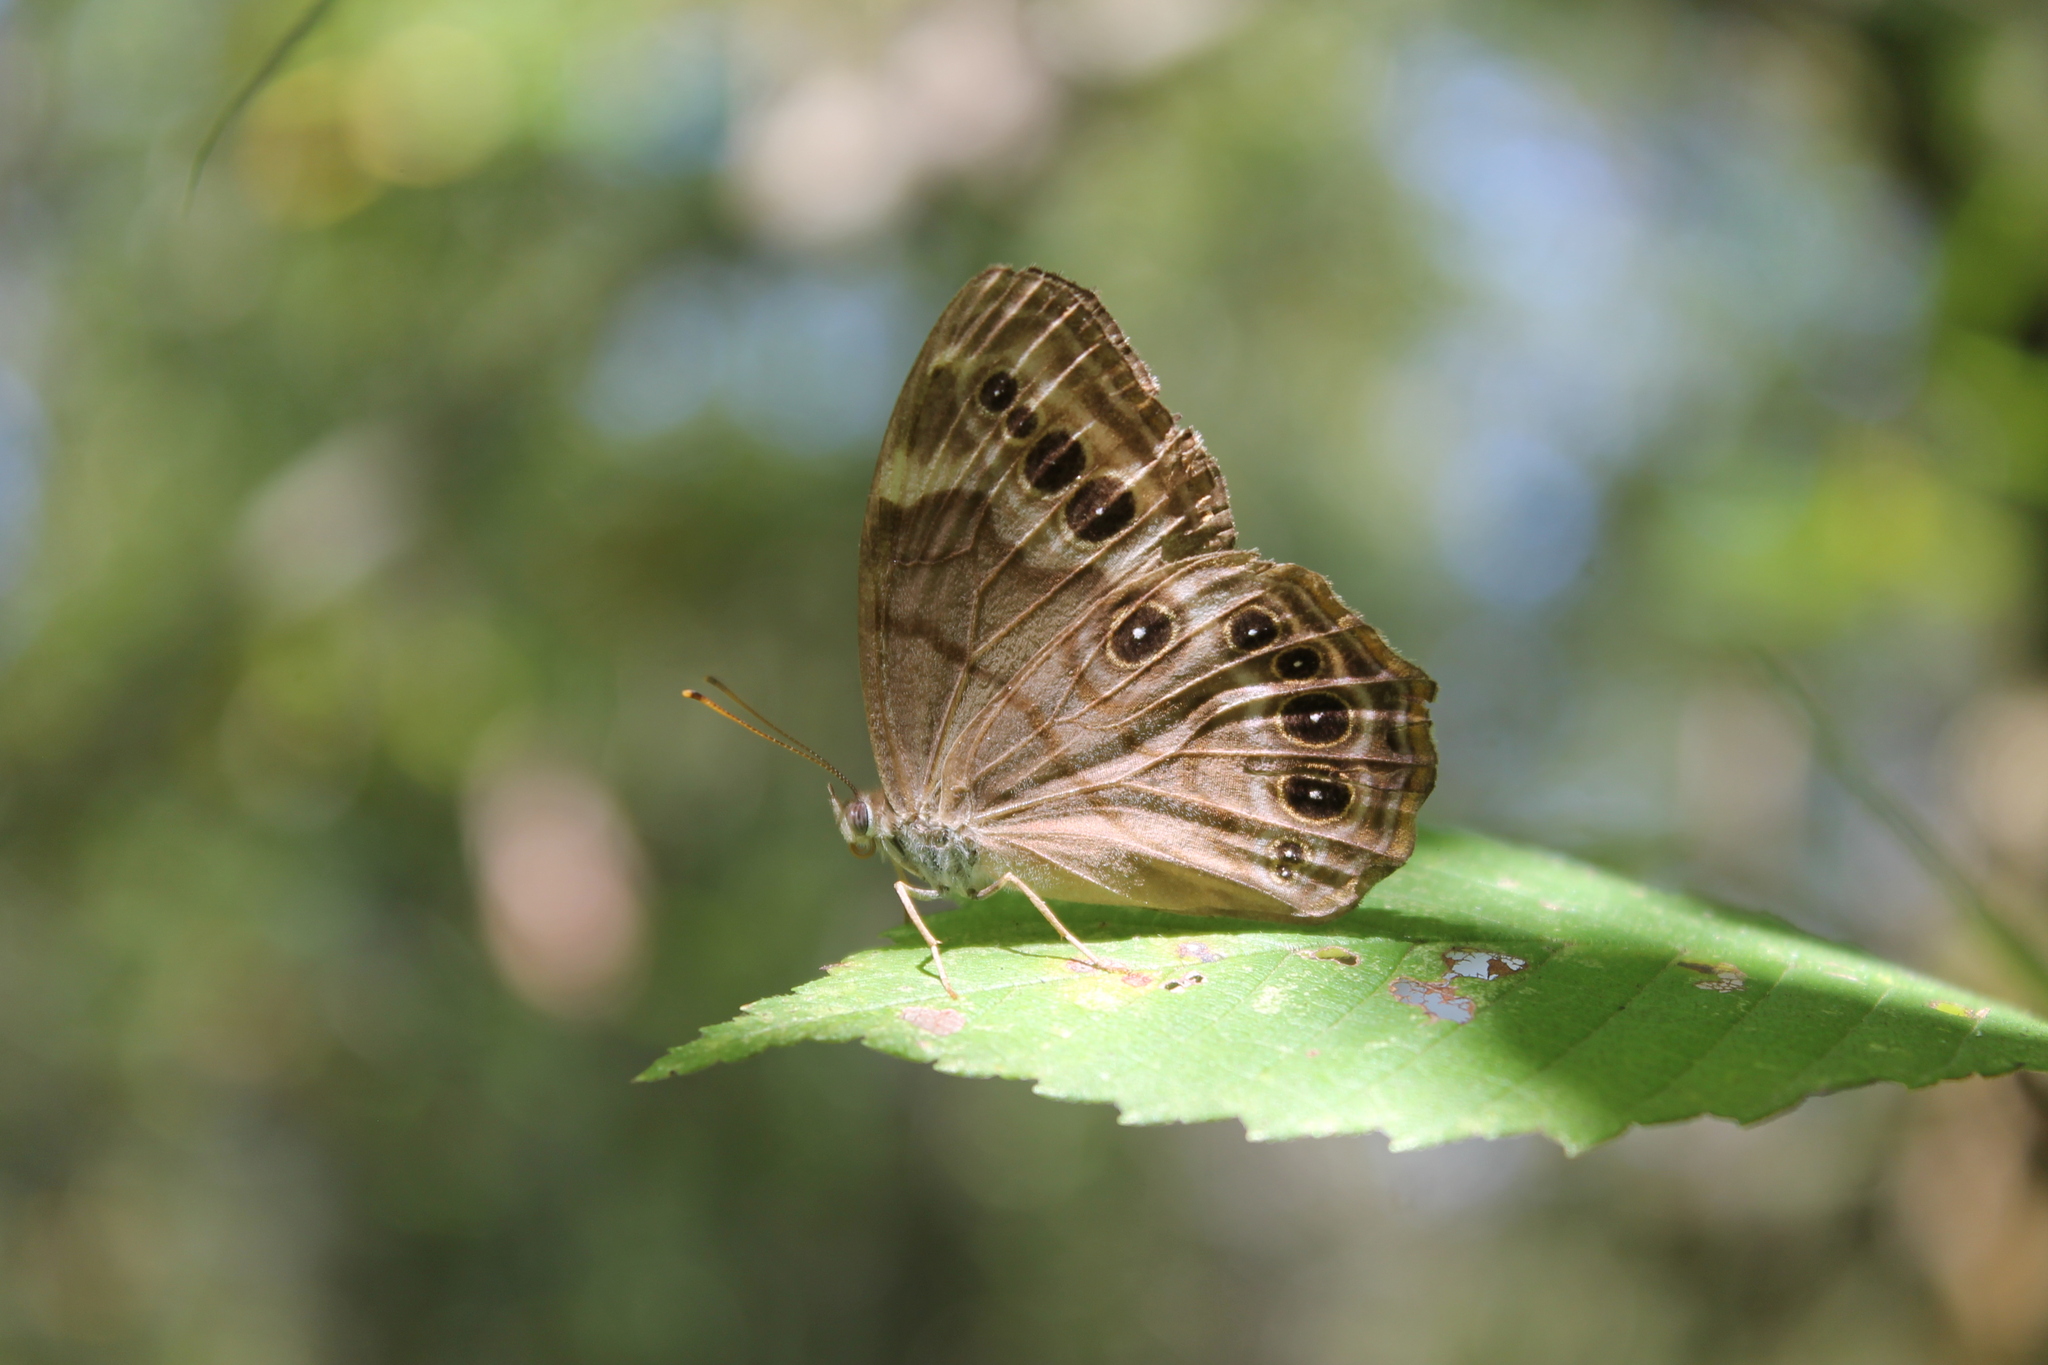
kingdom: Animalia
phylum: Arthropoda
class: Insecta
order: Lepidoptera
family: Nymphalidae
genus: Lethe
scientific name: Lethe anthedon
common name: Northern pearly-eye
